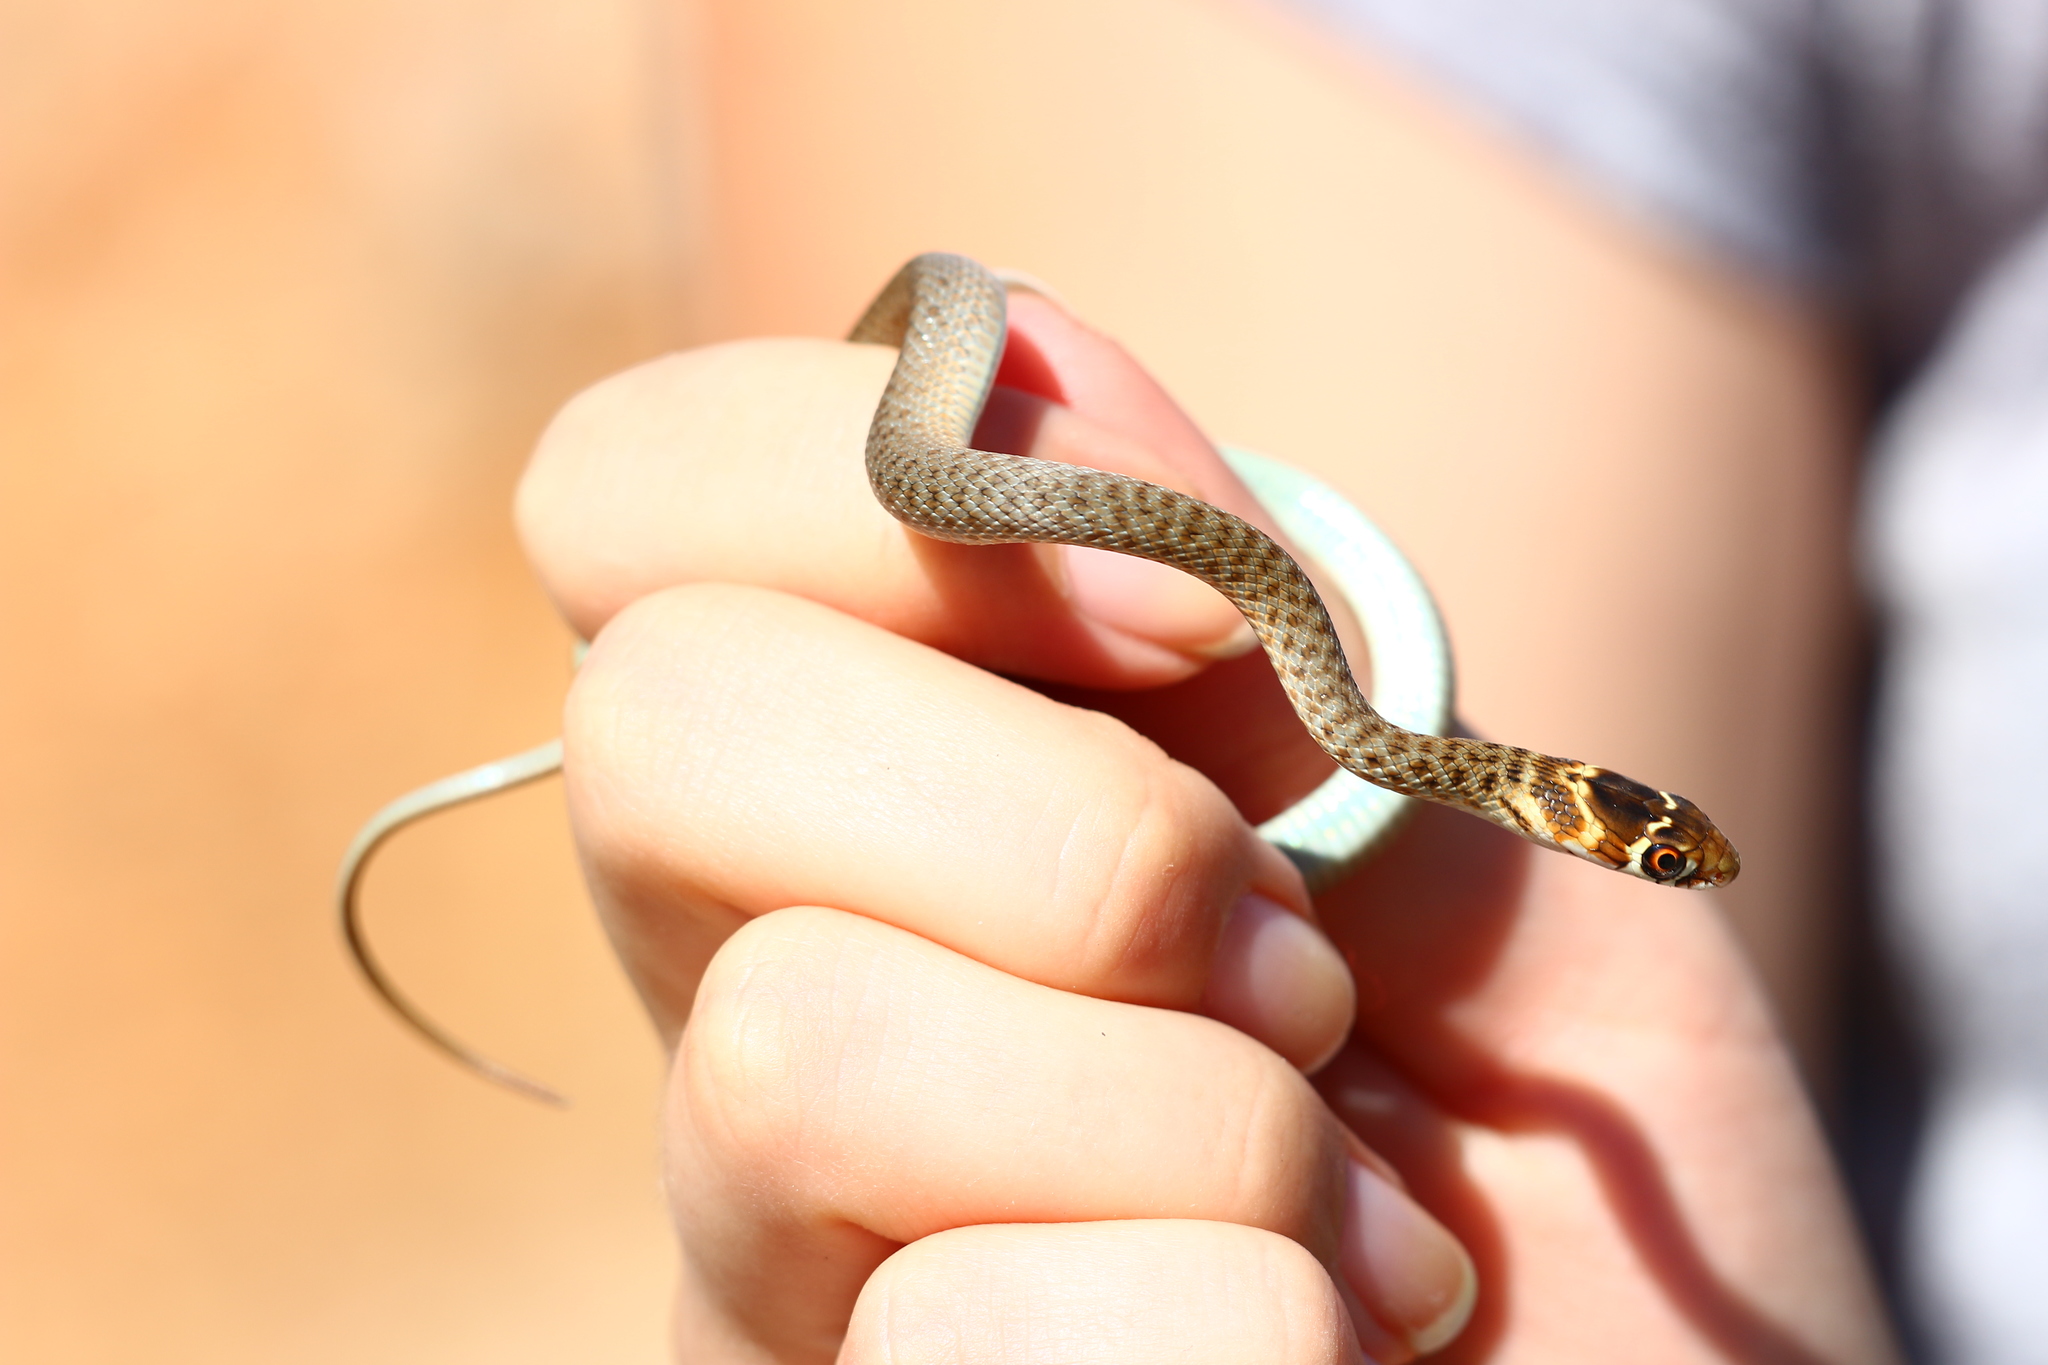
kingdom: Animalia
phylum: Chordata
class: Squamata
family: Colubridae
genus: Hierophis
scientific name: Hierophis gemonensis
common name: Balkan whip snake
